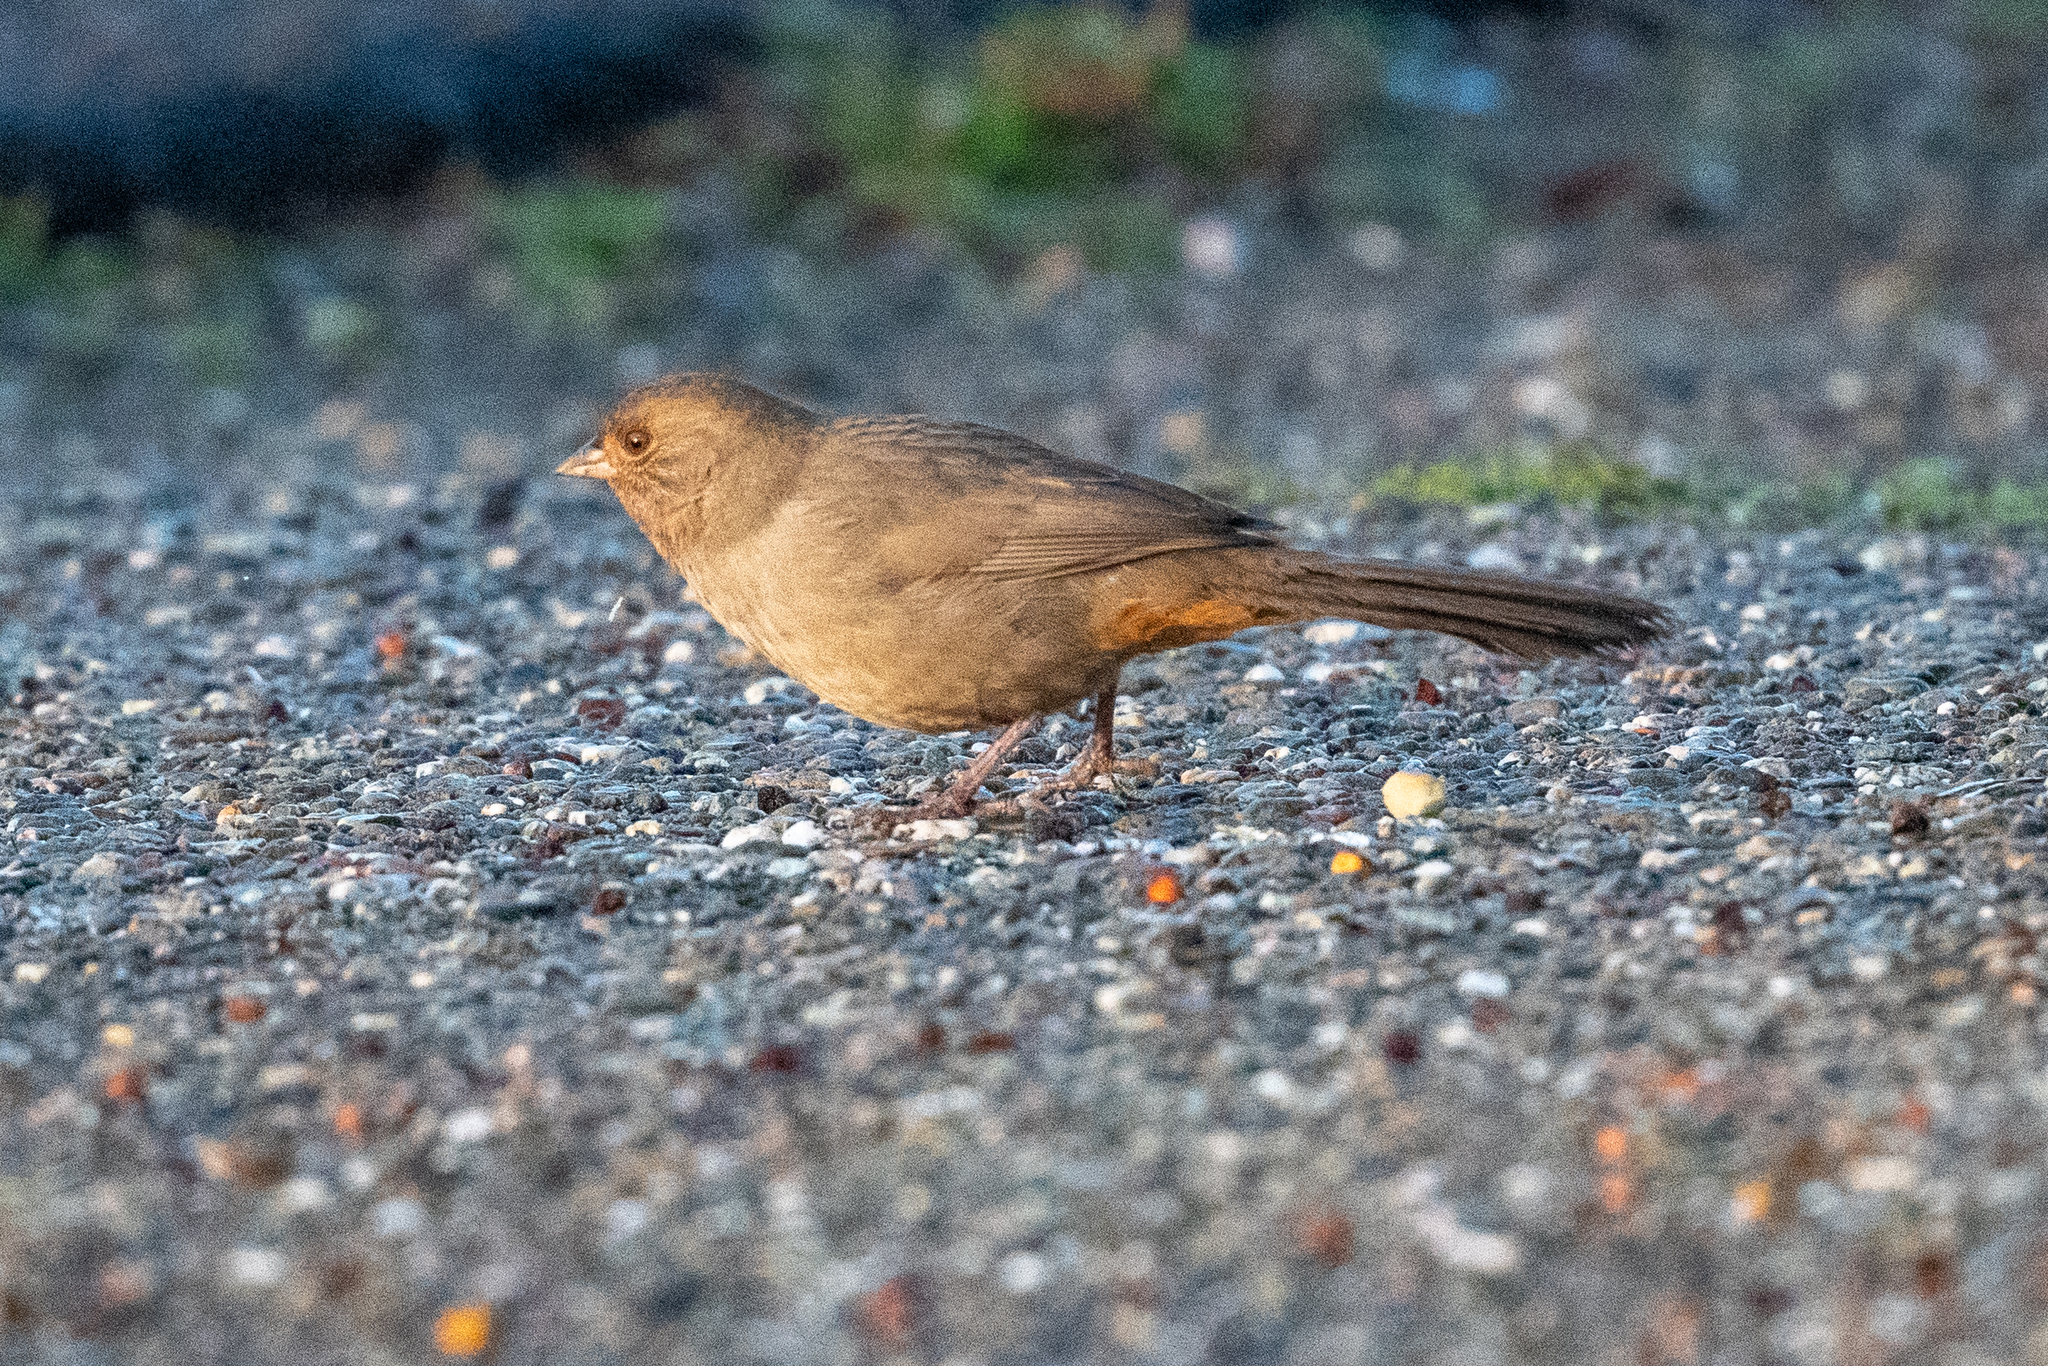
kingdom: Animalia
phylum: Chordata
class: Aves
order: Passeriformes
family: Passerellidae
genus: Melozone
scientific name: Melozone crissalis
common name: California towhee
